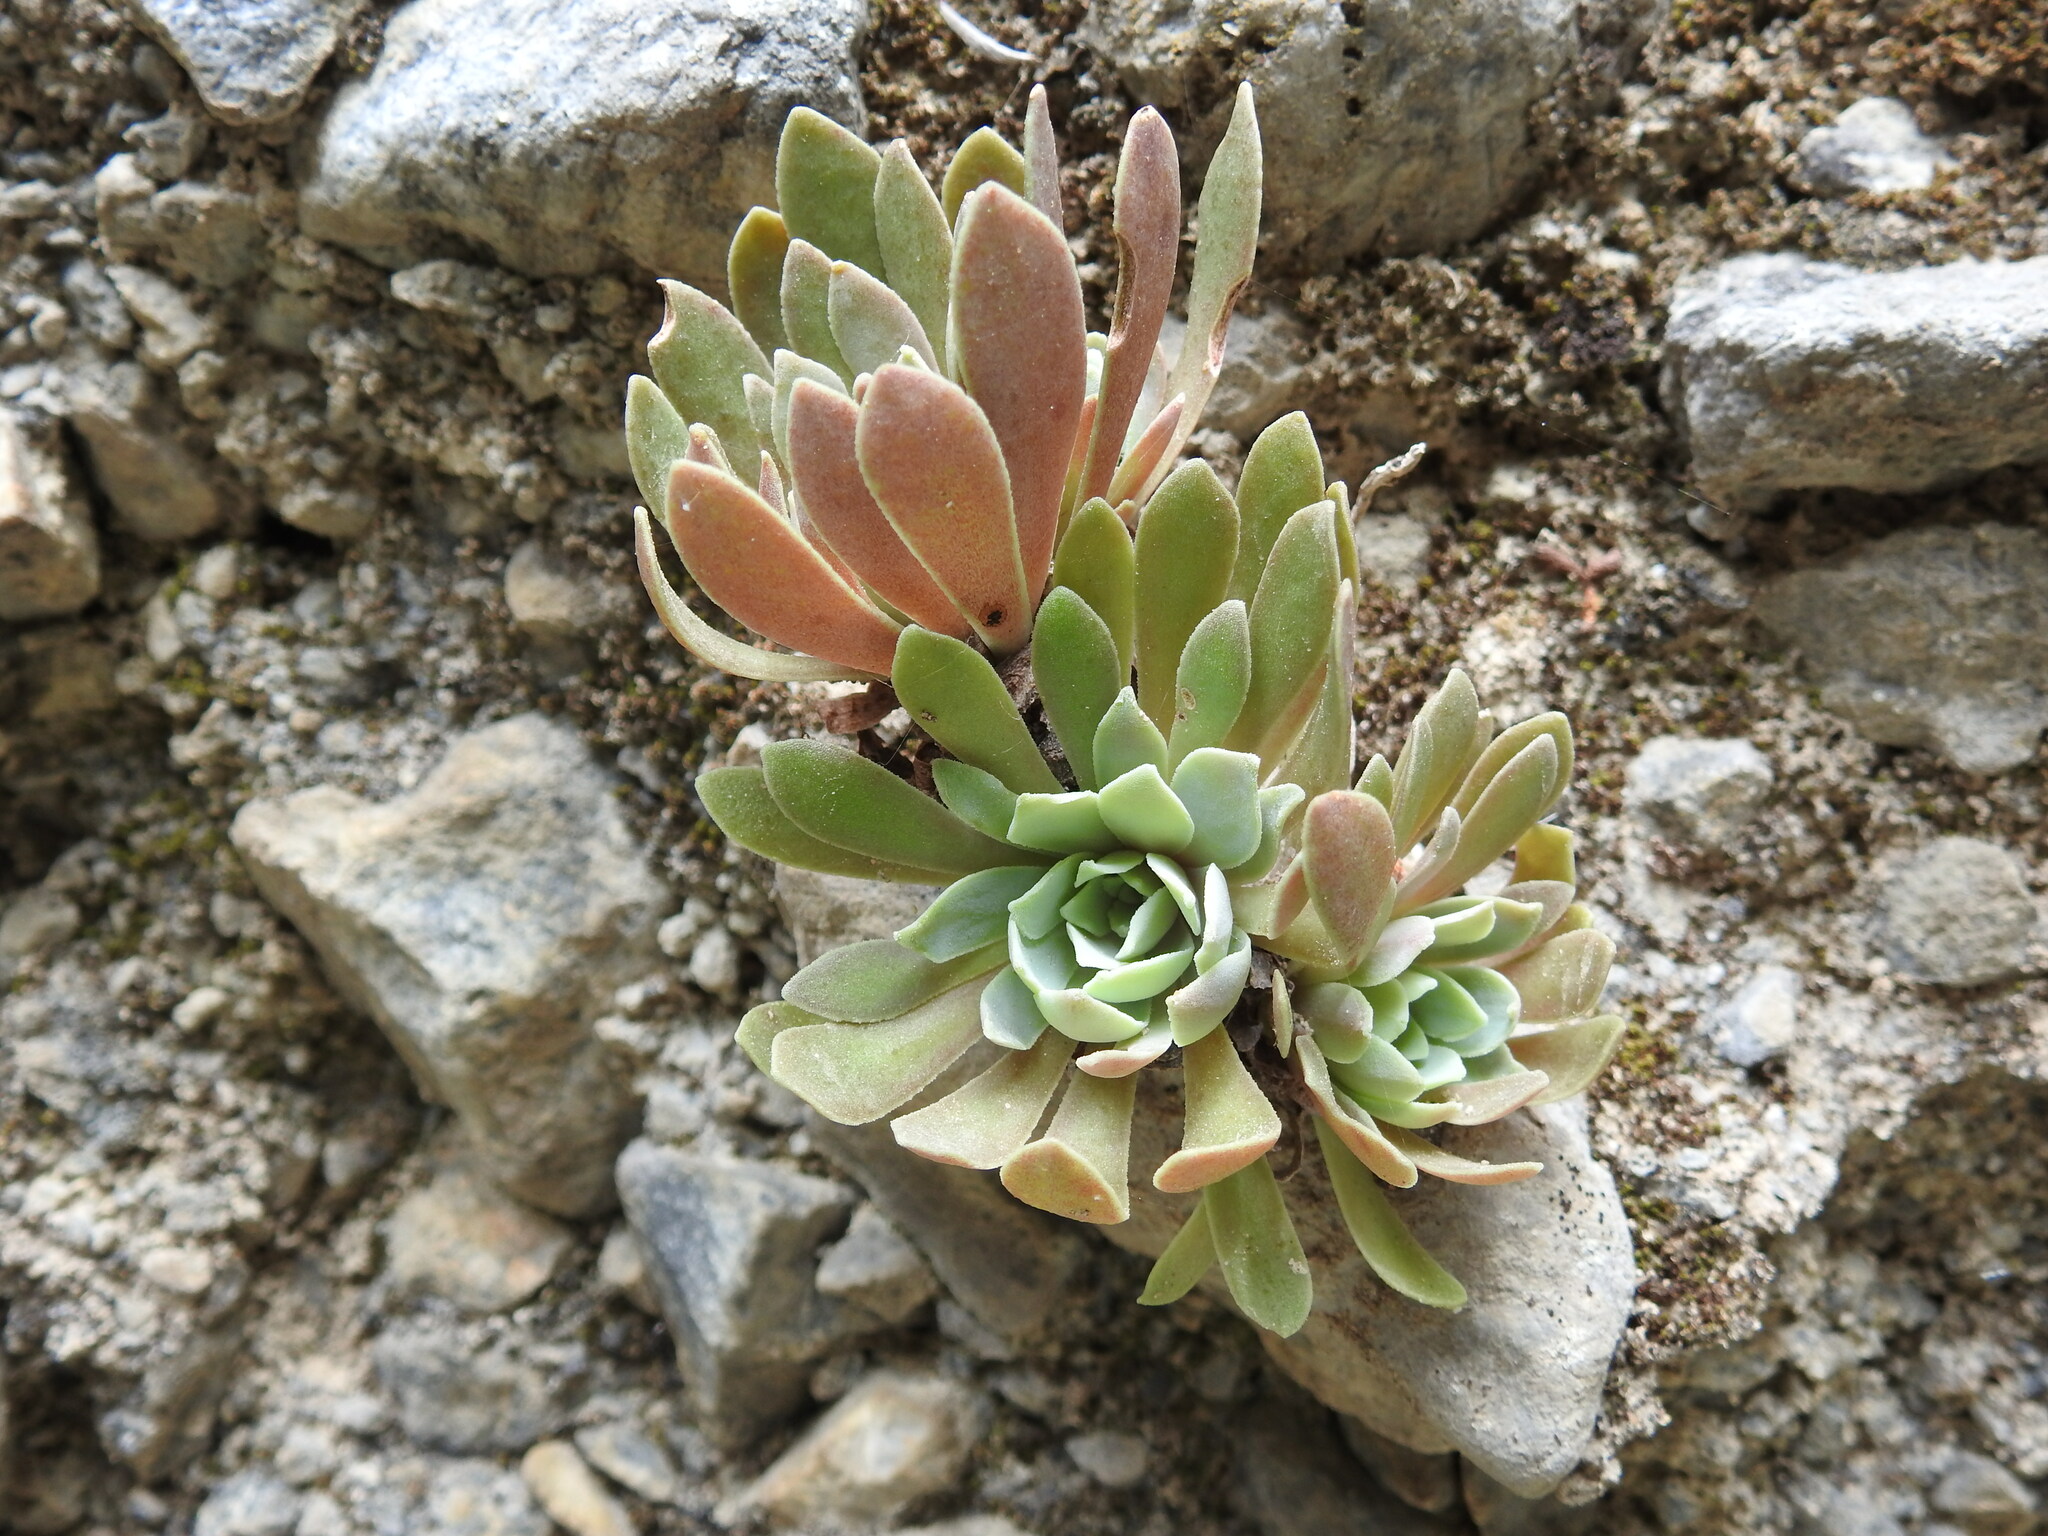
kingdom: Plantae
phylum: Tracheophyta
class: Magnoliopsida
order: Saxifragales
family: Crassulaceae
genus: Rosularia
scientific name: Rosularia serrata
